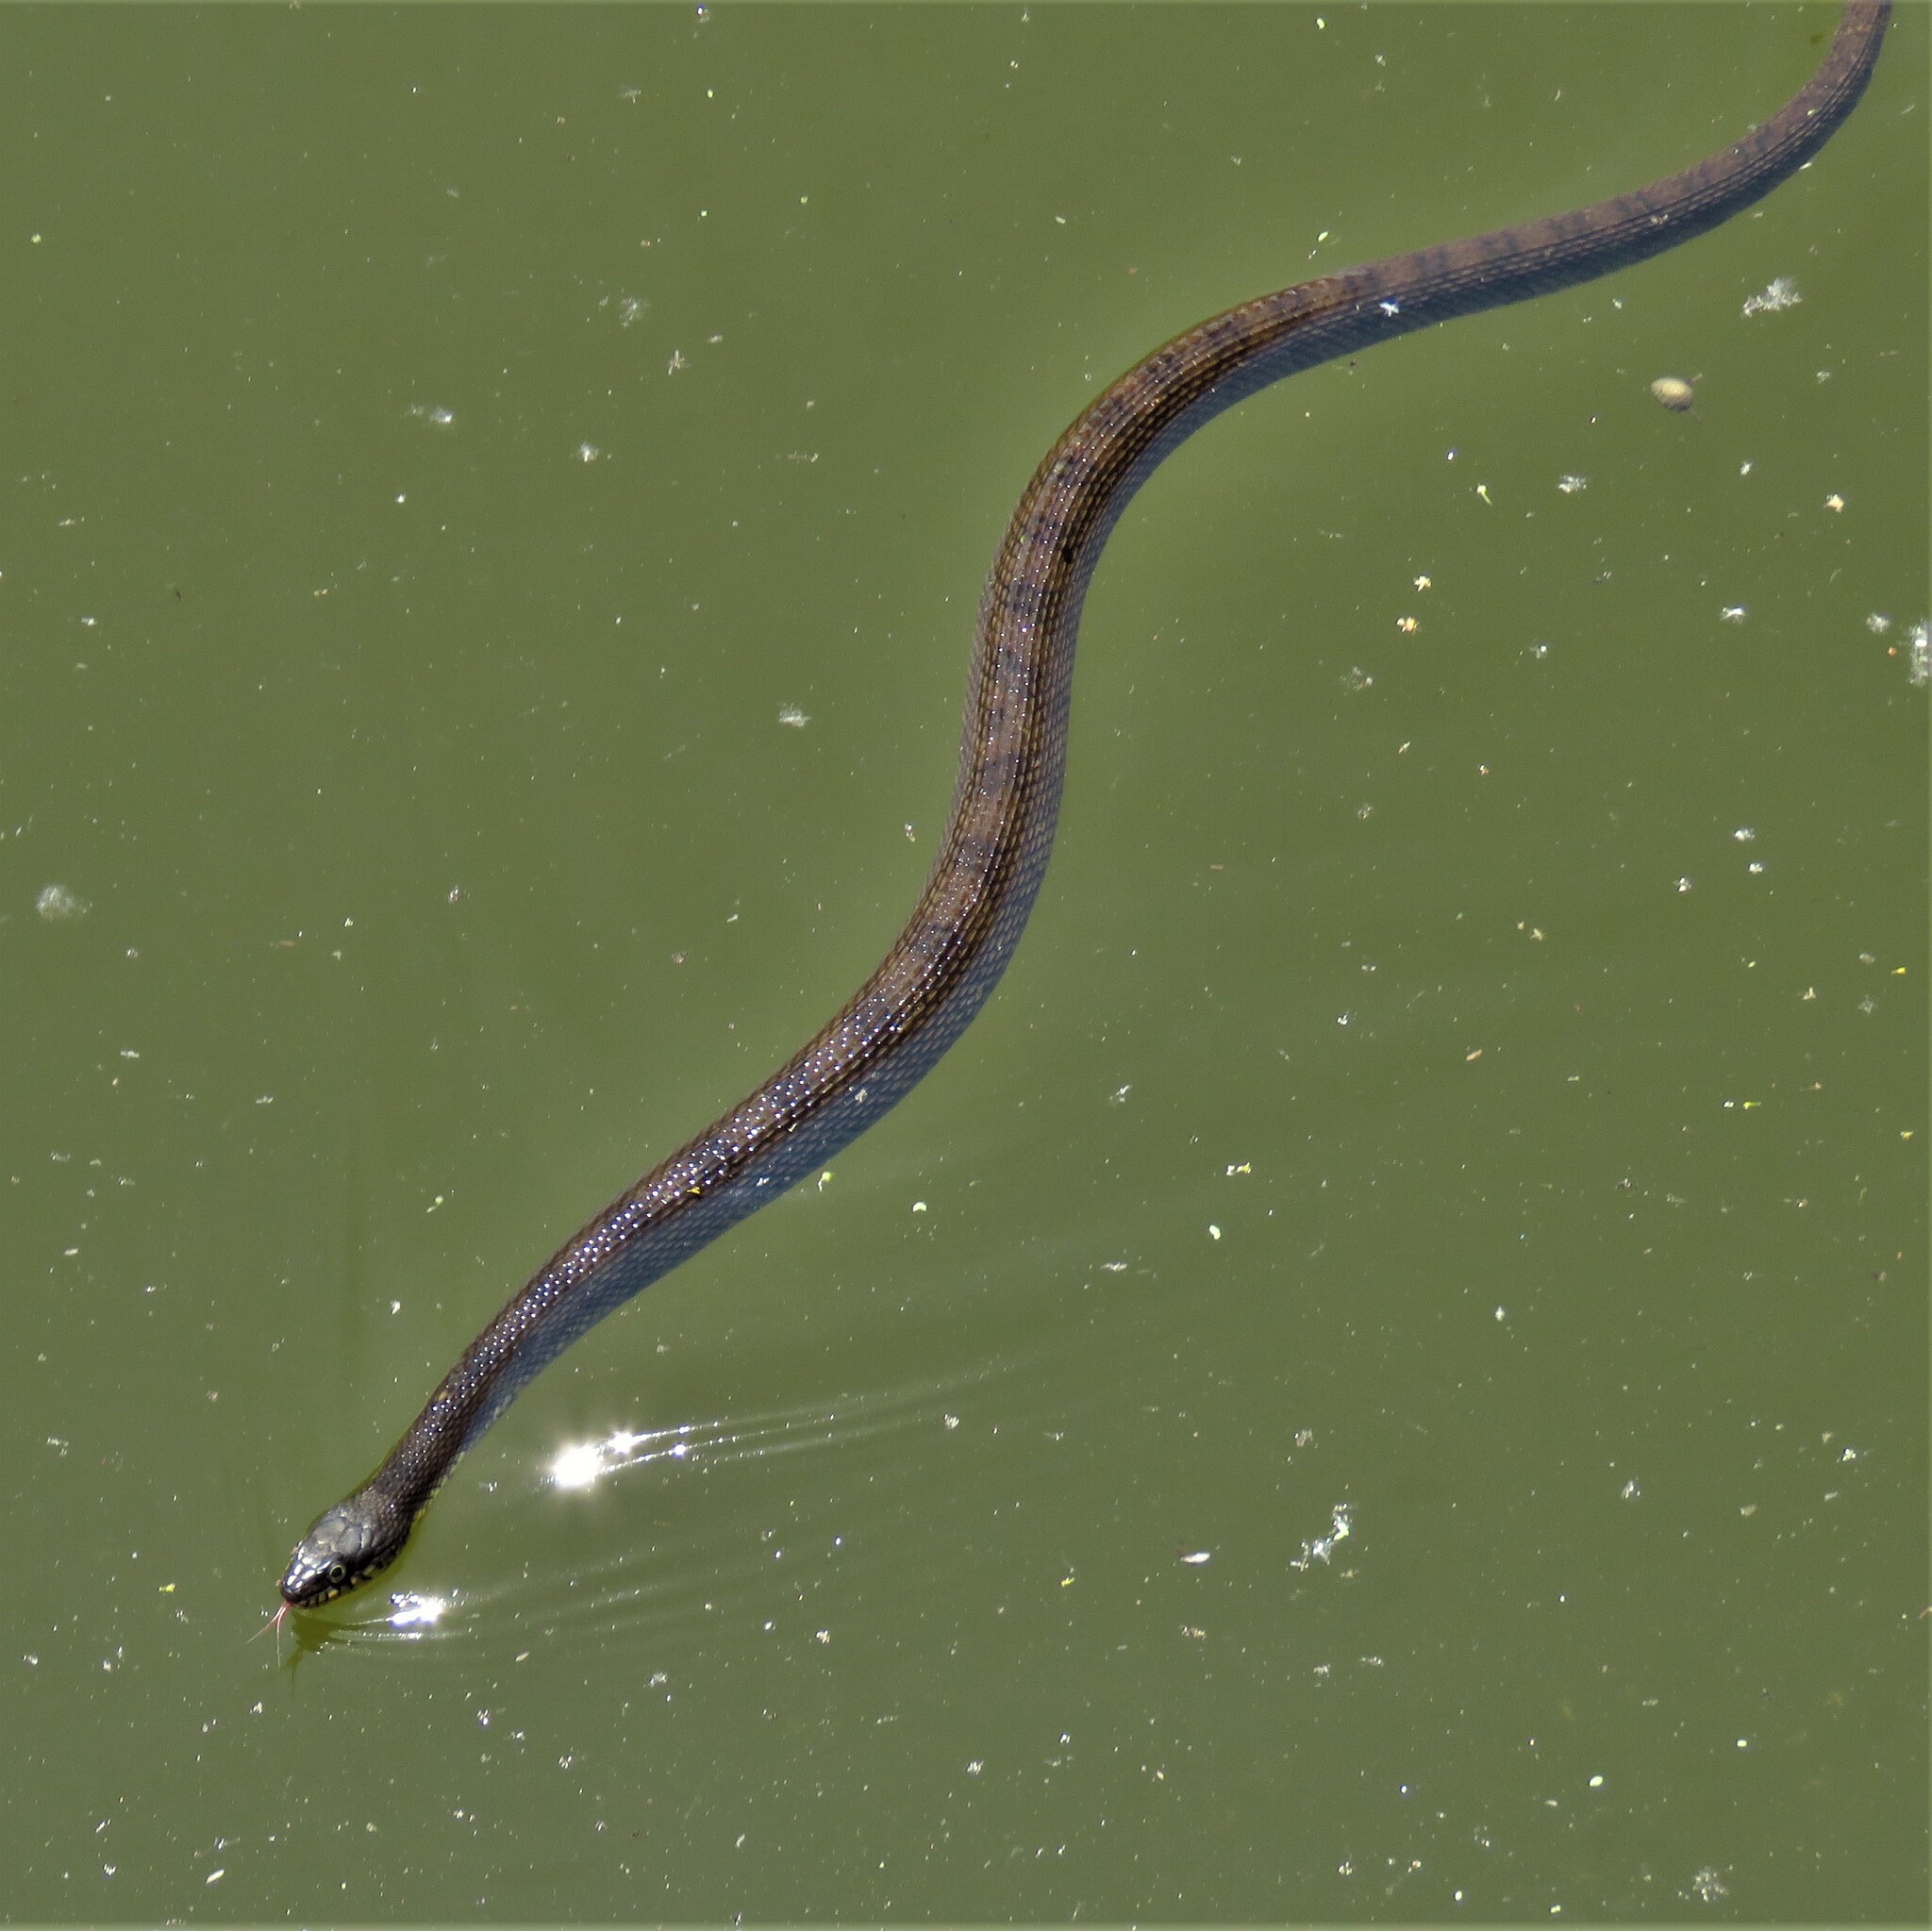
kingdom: Animalia
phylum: Chordata
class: Squamata
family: Colubridae
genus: Nerodia
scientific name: Nerodia erythrogaster
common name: Plainbelly water snake
